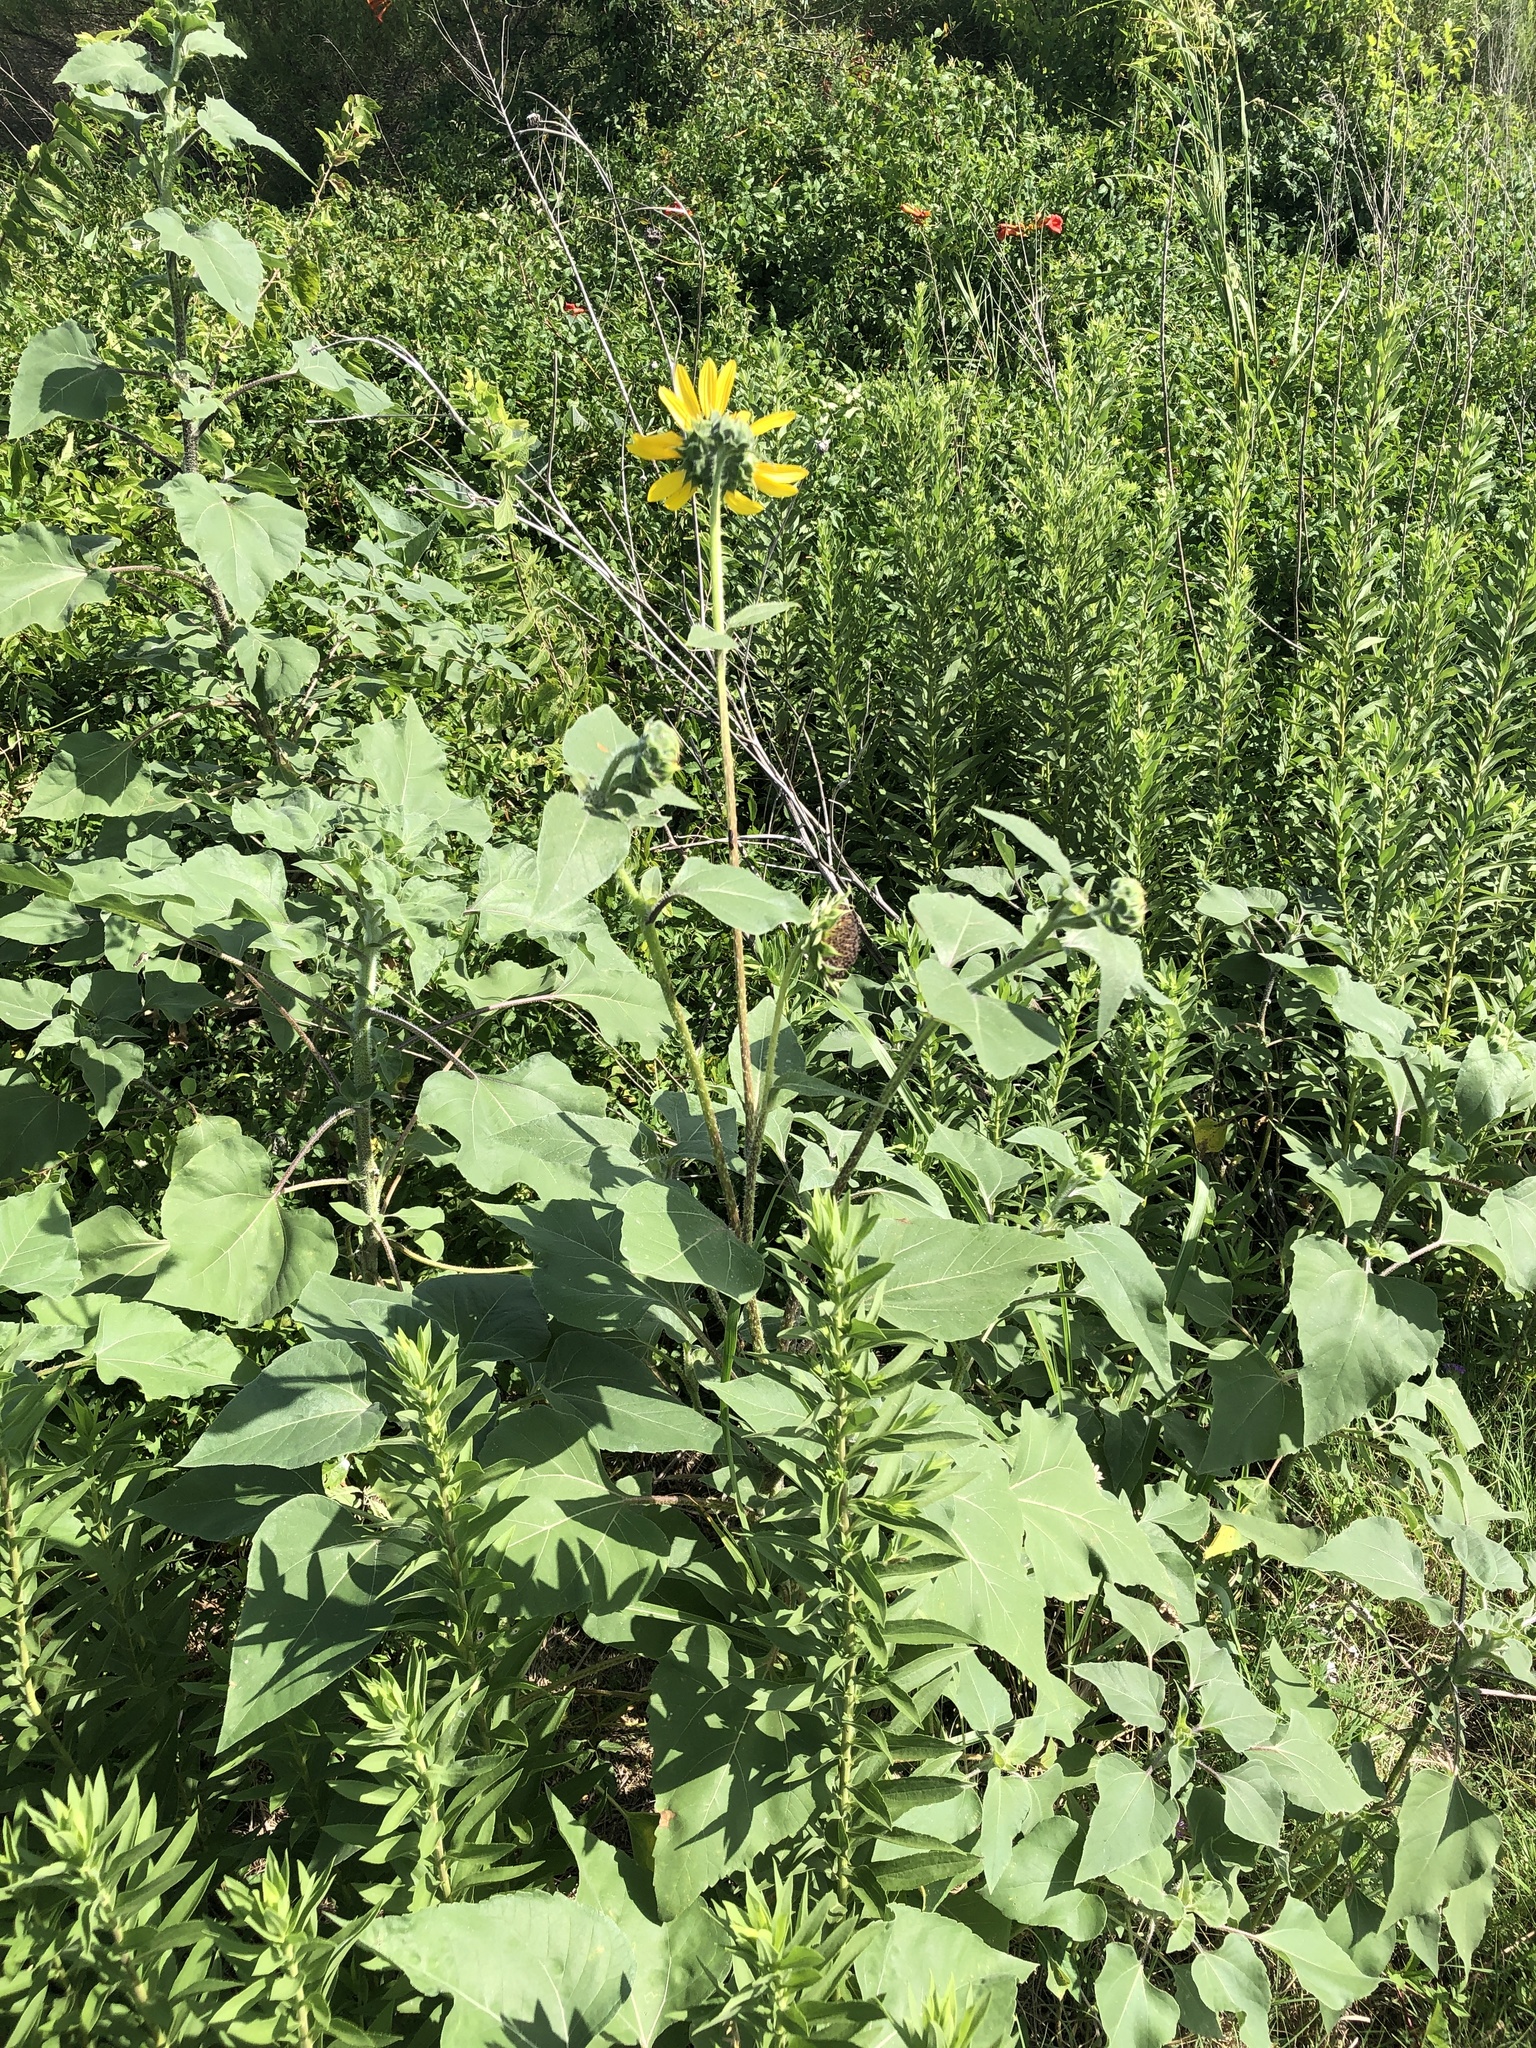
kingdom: Plantae
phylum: Tracheophyta
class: Magnoliopsida
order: Asterales
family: Asteraceae
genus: Helianthus
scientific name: Helianthus annuus
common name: Sunflower
